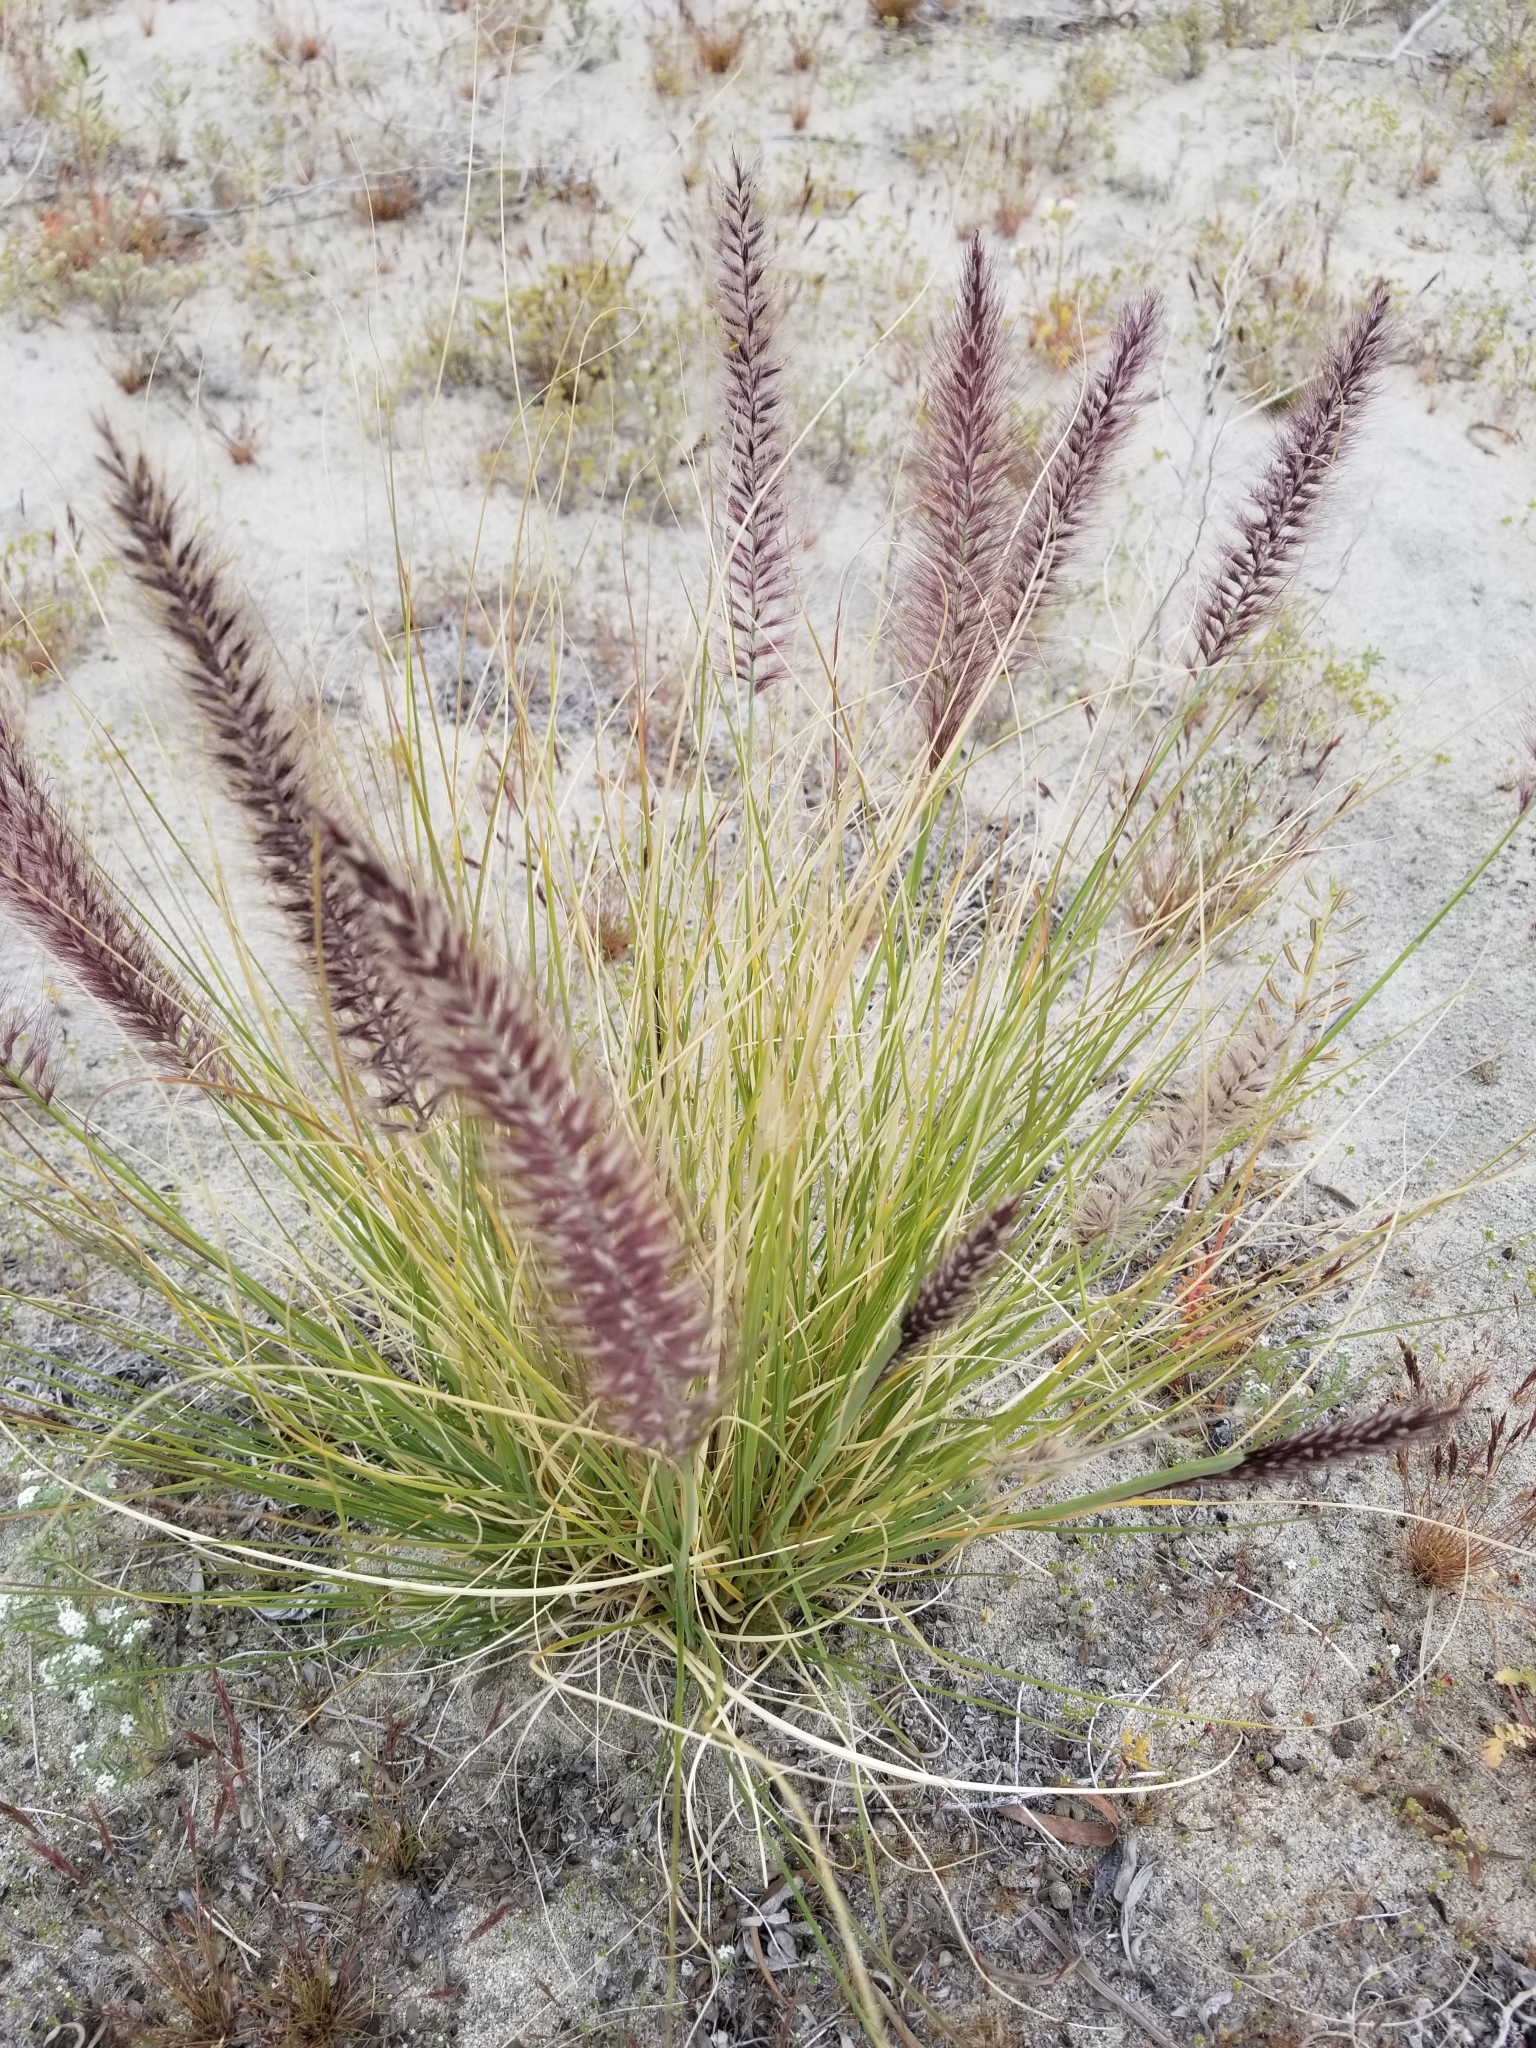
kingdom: Plantae
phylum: Tracheophyta
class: Liliopsida
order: Poales
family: Poaceae
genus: Cenchrus
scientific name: Cenchrus setaceus
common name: Crimson fountaingrass
